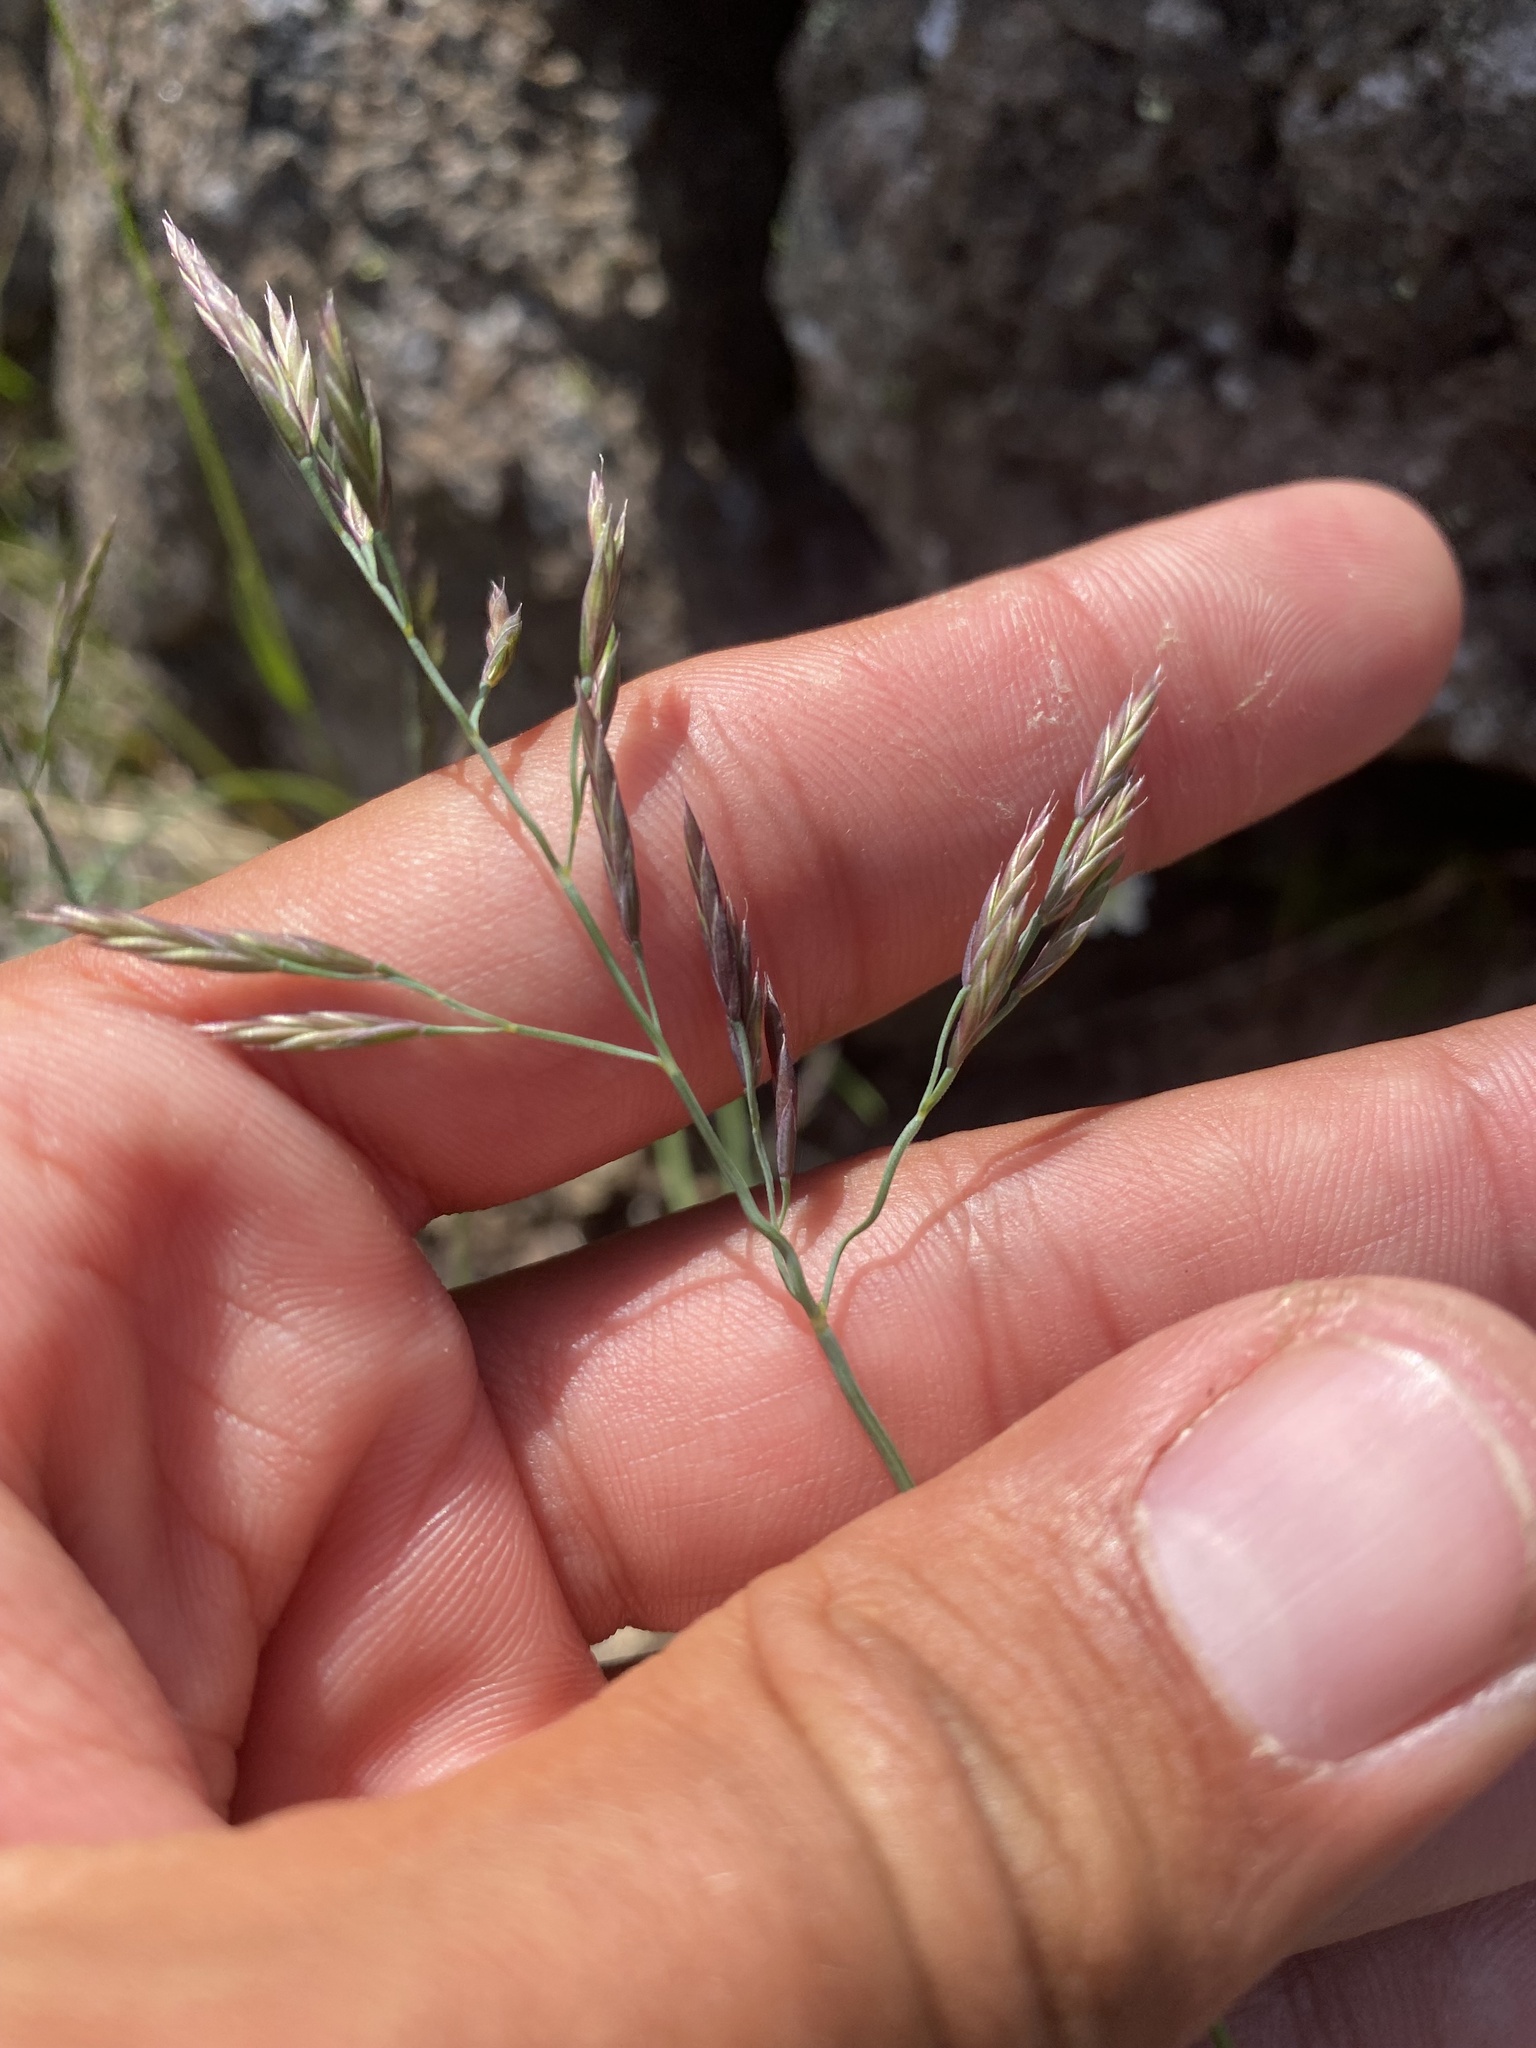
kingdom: Plantae
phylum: Tracheophyta
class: Liliopsida
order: Poales
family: Poaceae
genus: Festuca
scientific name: Festuca
